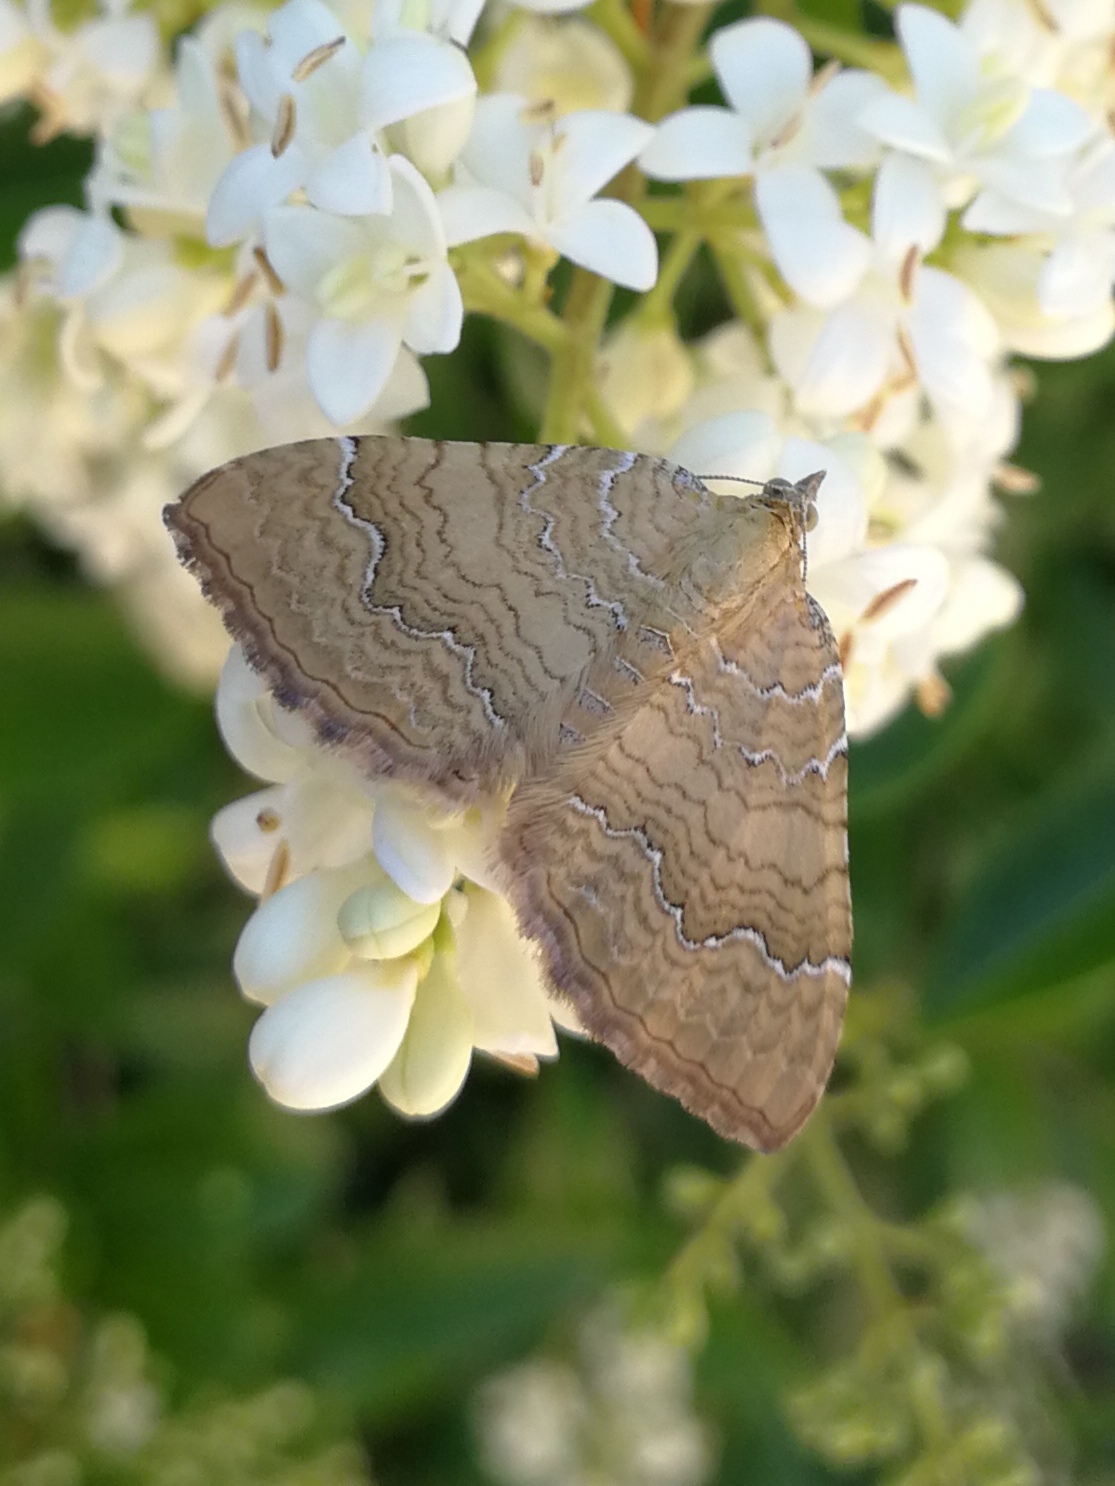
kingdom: Animalia
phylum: Arthropoda
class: Insecta
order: Lepidoptera
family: Geometridae
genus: Camptogramma
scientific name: Camptogramma bilineata
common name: Yellow shell
